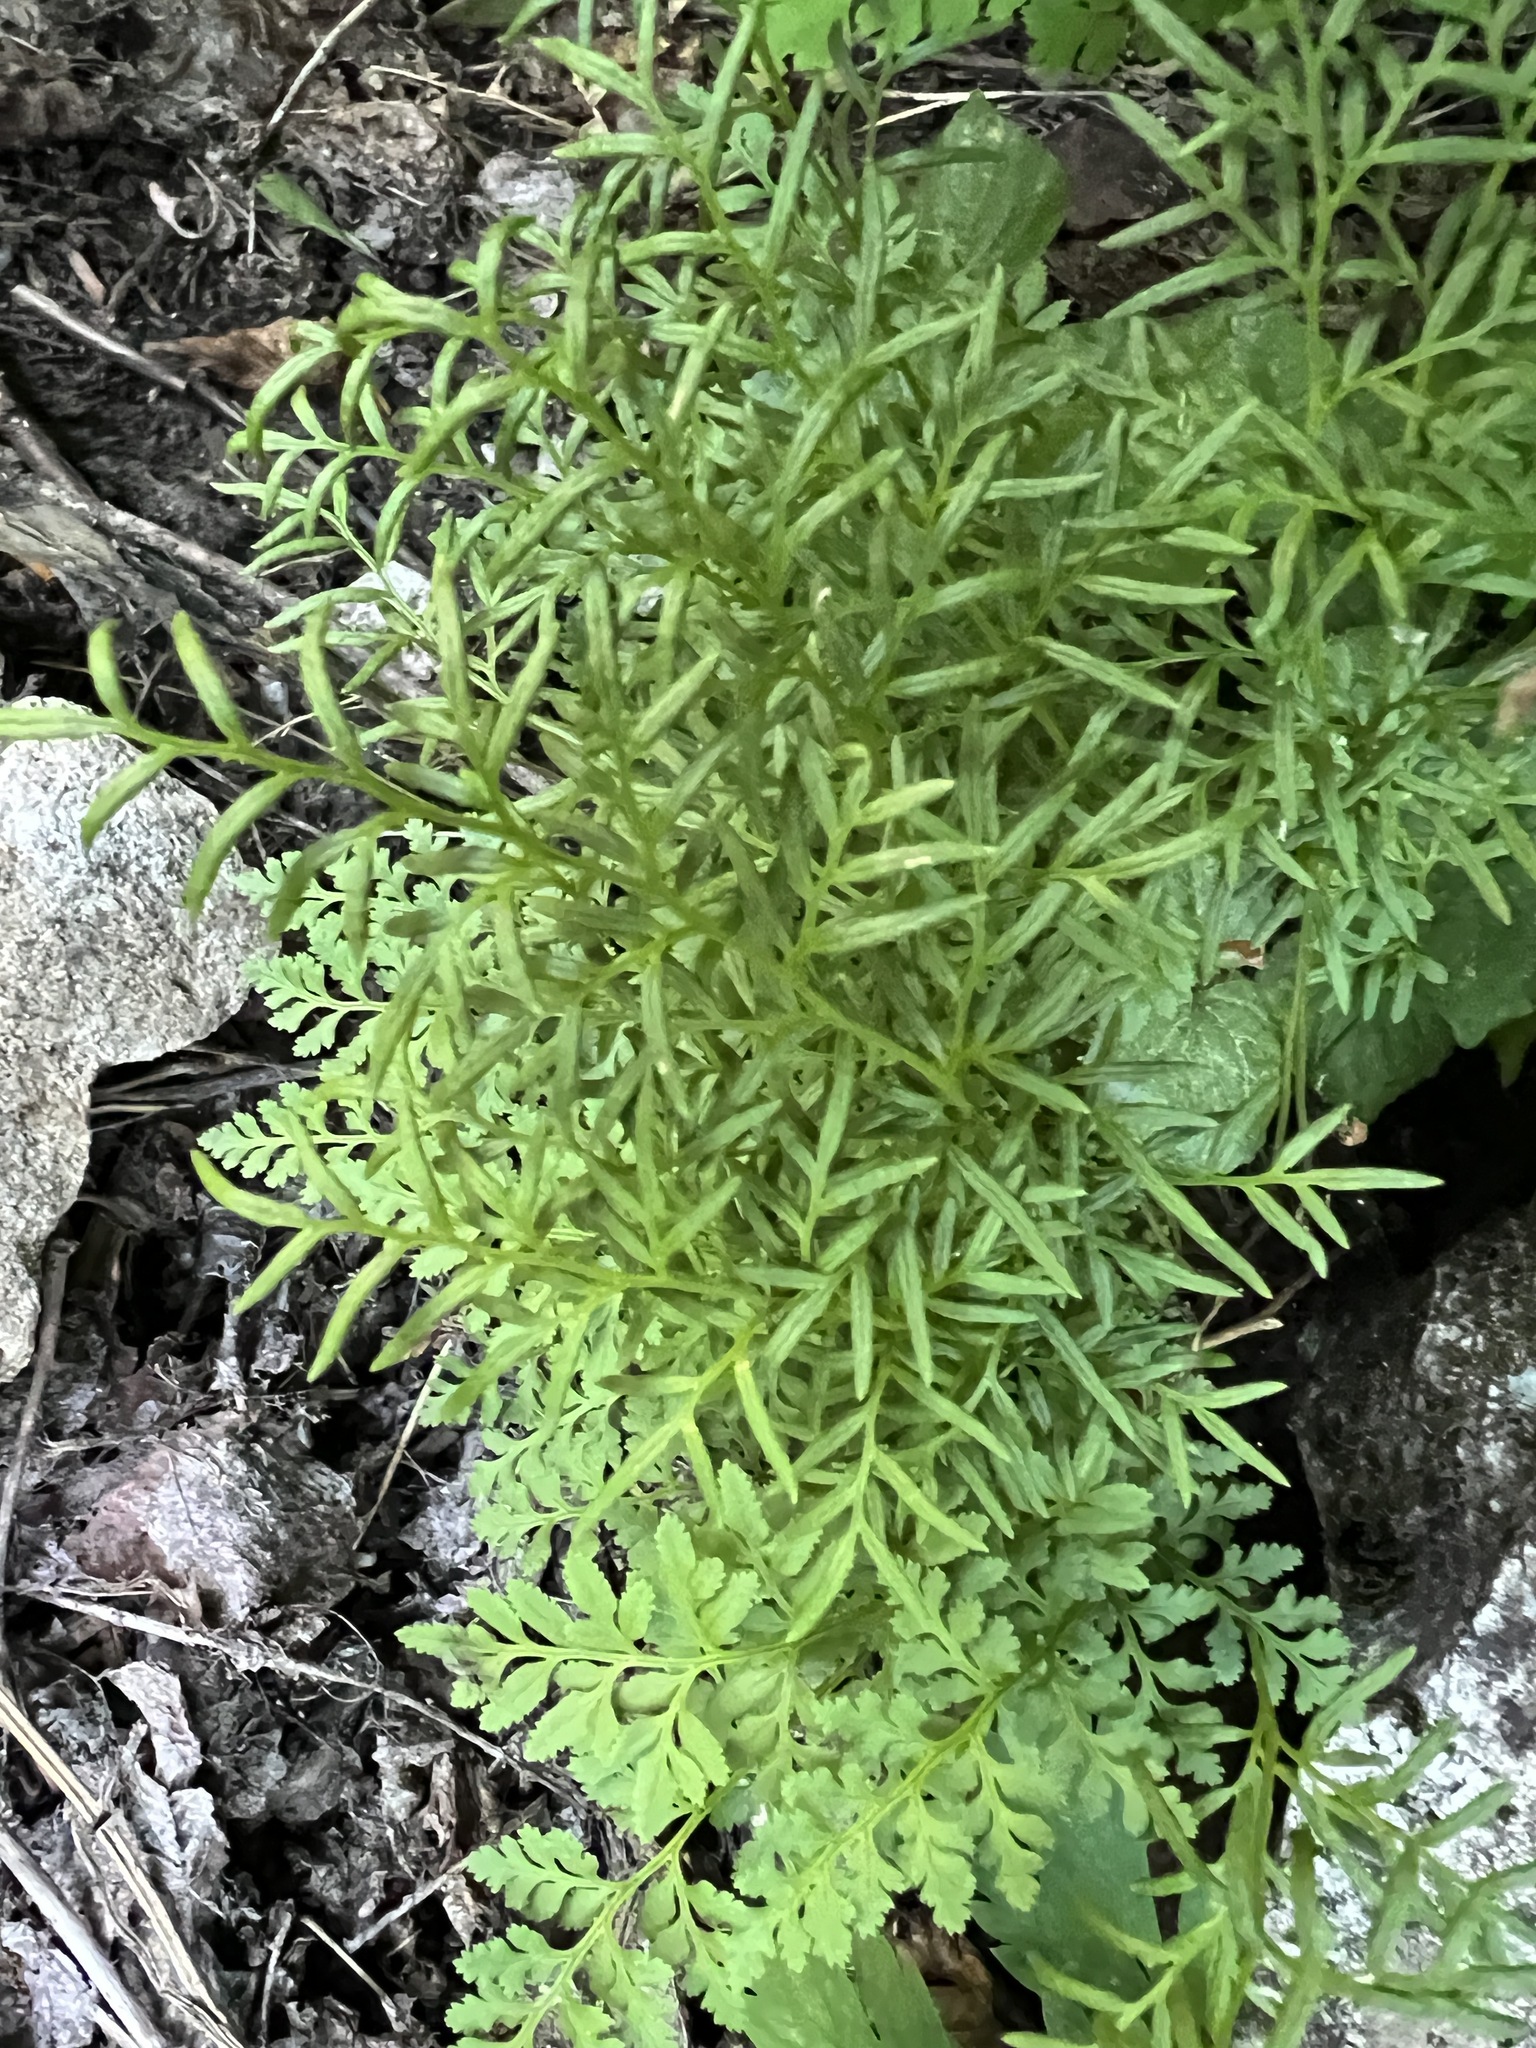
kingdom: Plantae
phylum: Tracheophyta
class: Polypodiopsida
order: Polypodiales
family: Pteridaceae
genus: Cryptogramma
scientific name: Cryptogramma acrostichoides
